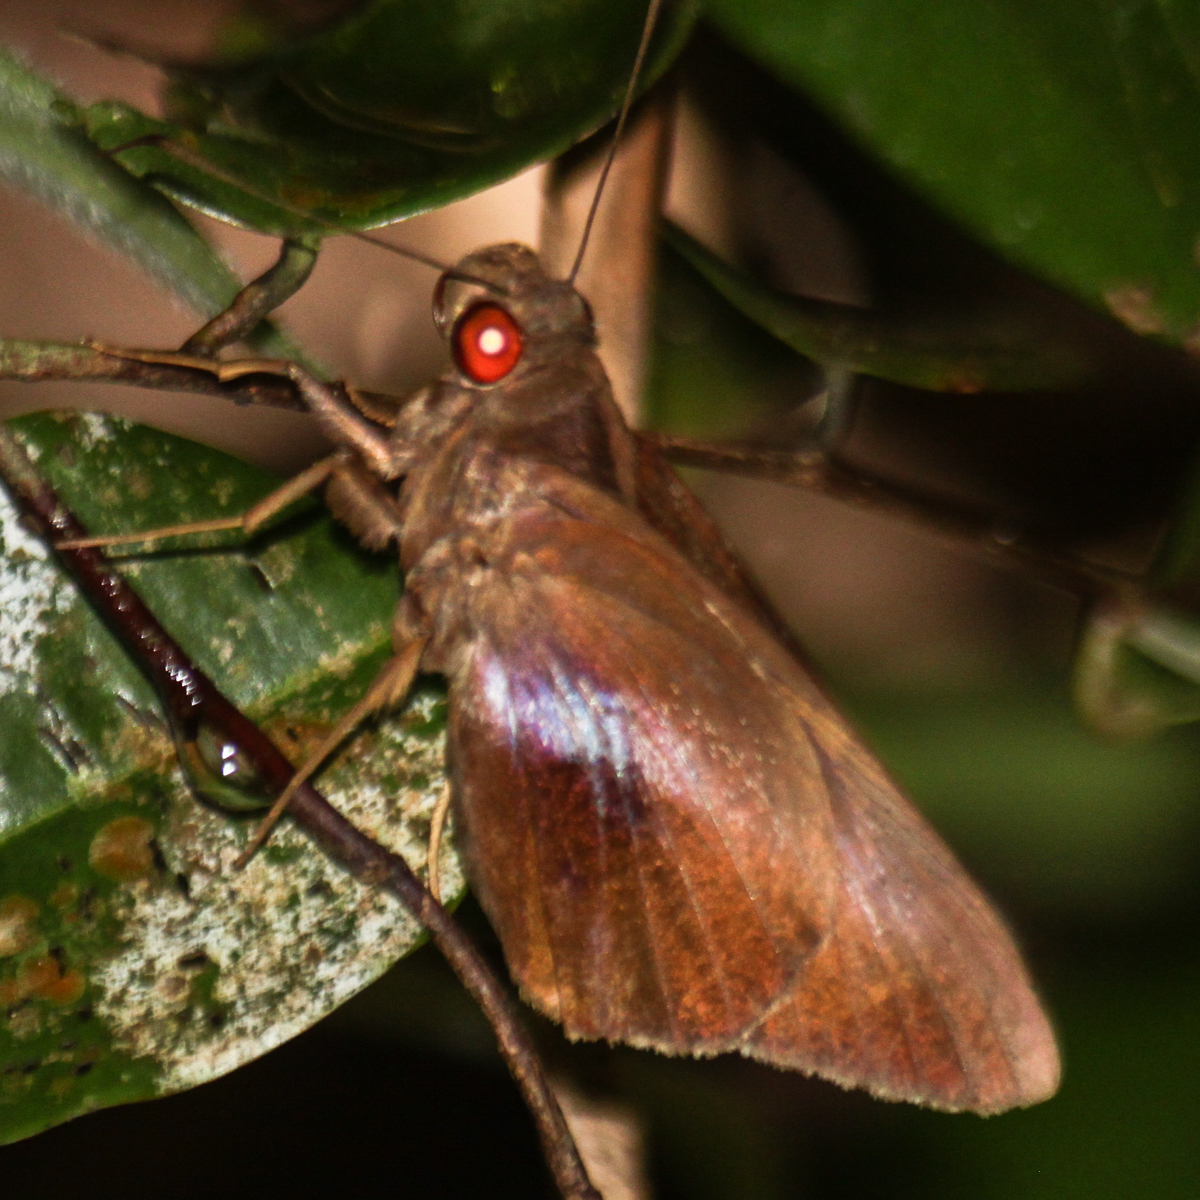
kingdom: Animalia
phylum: Arthropoda
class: Insecta
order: Lepidoptera
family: Hesperiidae
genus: Gangara
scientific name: Gangara lebadea
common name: Banded redeye
